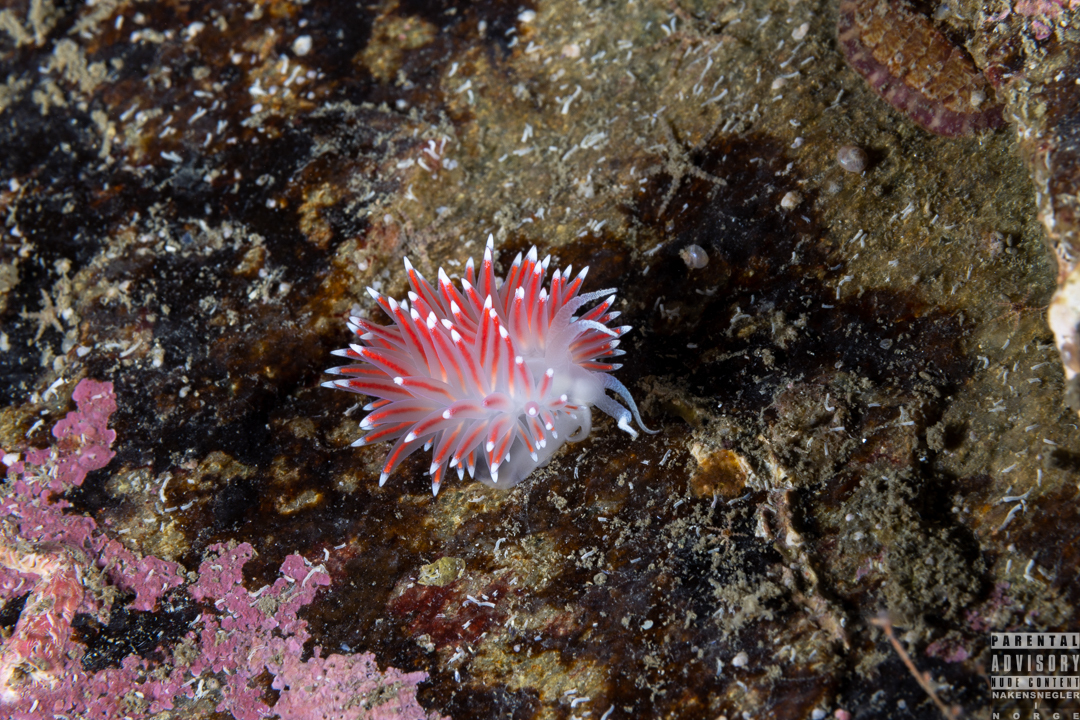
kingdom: Animalia
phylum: Mollusca
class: Gastropoda
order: Nudibranchia
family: Flabellinidae
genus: Carronella
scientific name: Carronella pellucida
